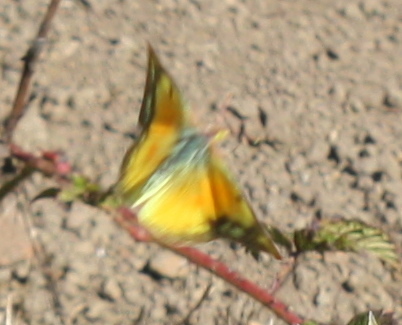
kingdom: Animalia
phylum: Arthropoda
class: Insecta
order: Lepidoptera
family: Pieridae
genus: Colias
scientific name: Colias eurytheme
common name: Alfalfa butterfly
